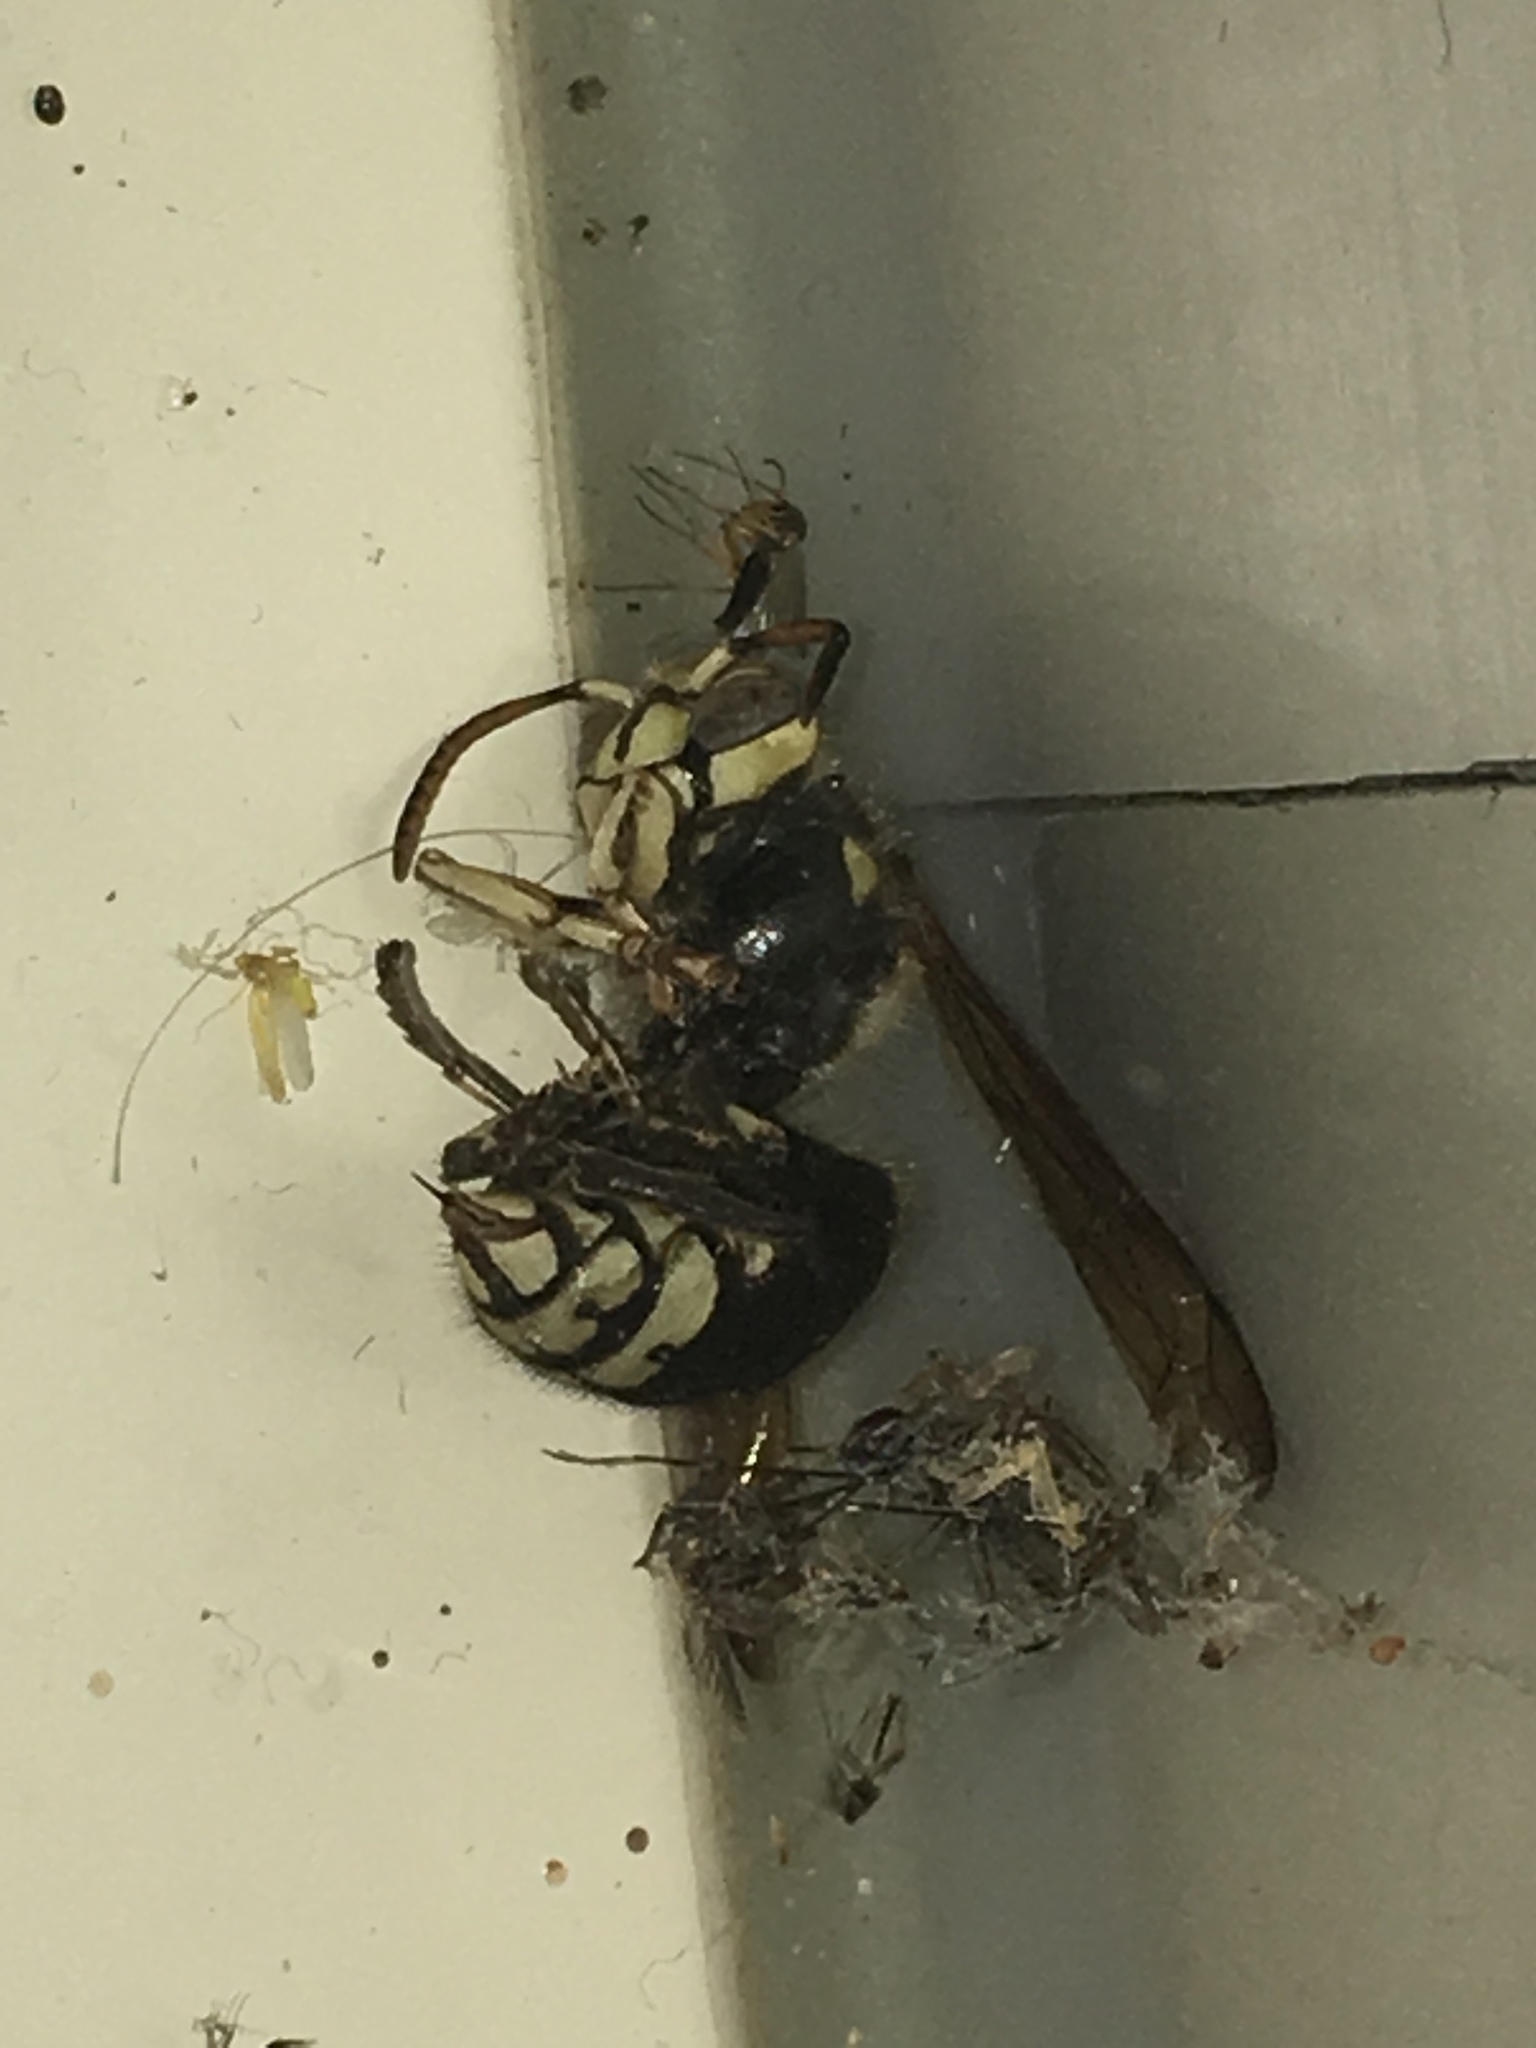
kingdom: Animalia
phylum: Arthropoda
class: Insecta
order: Hymenoptera
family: Vespidae
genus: Dolichovespula
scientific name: Dolichovespula maculata
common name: Bald-faced hornet
